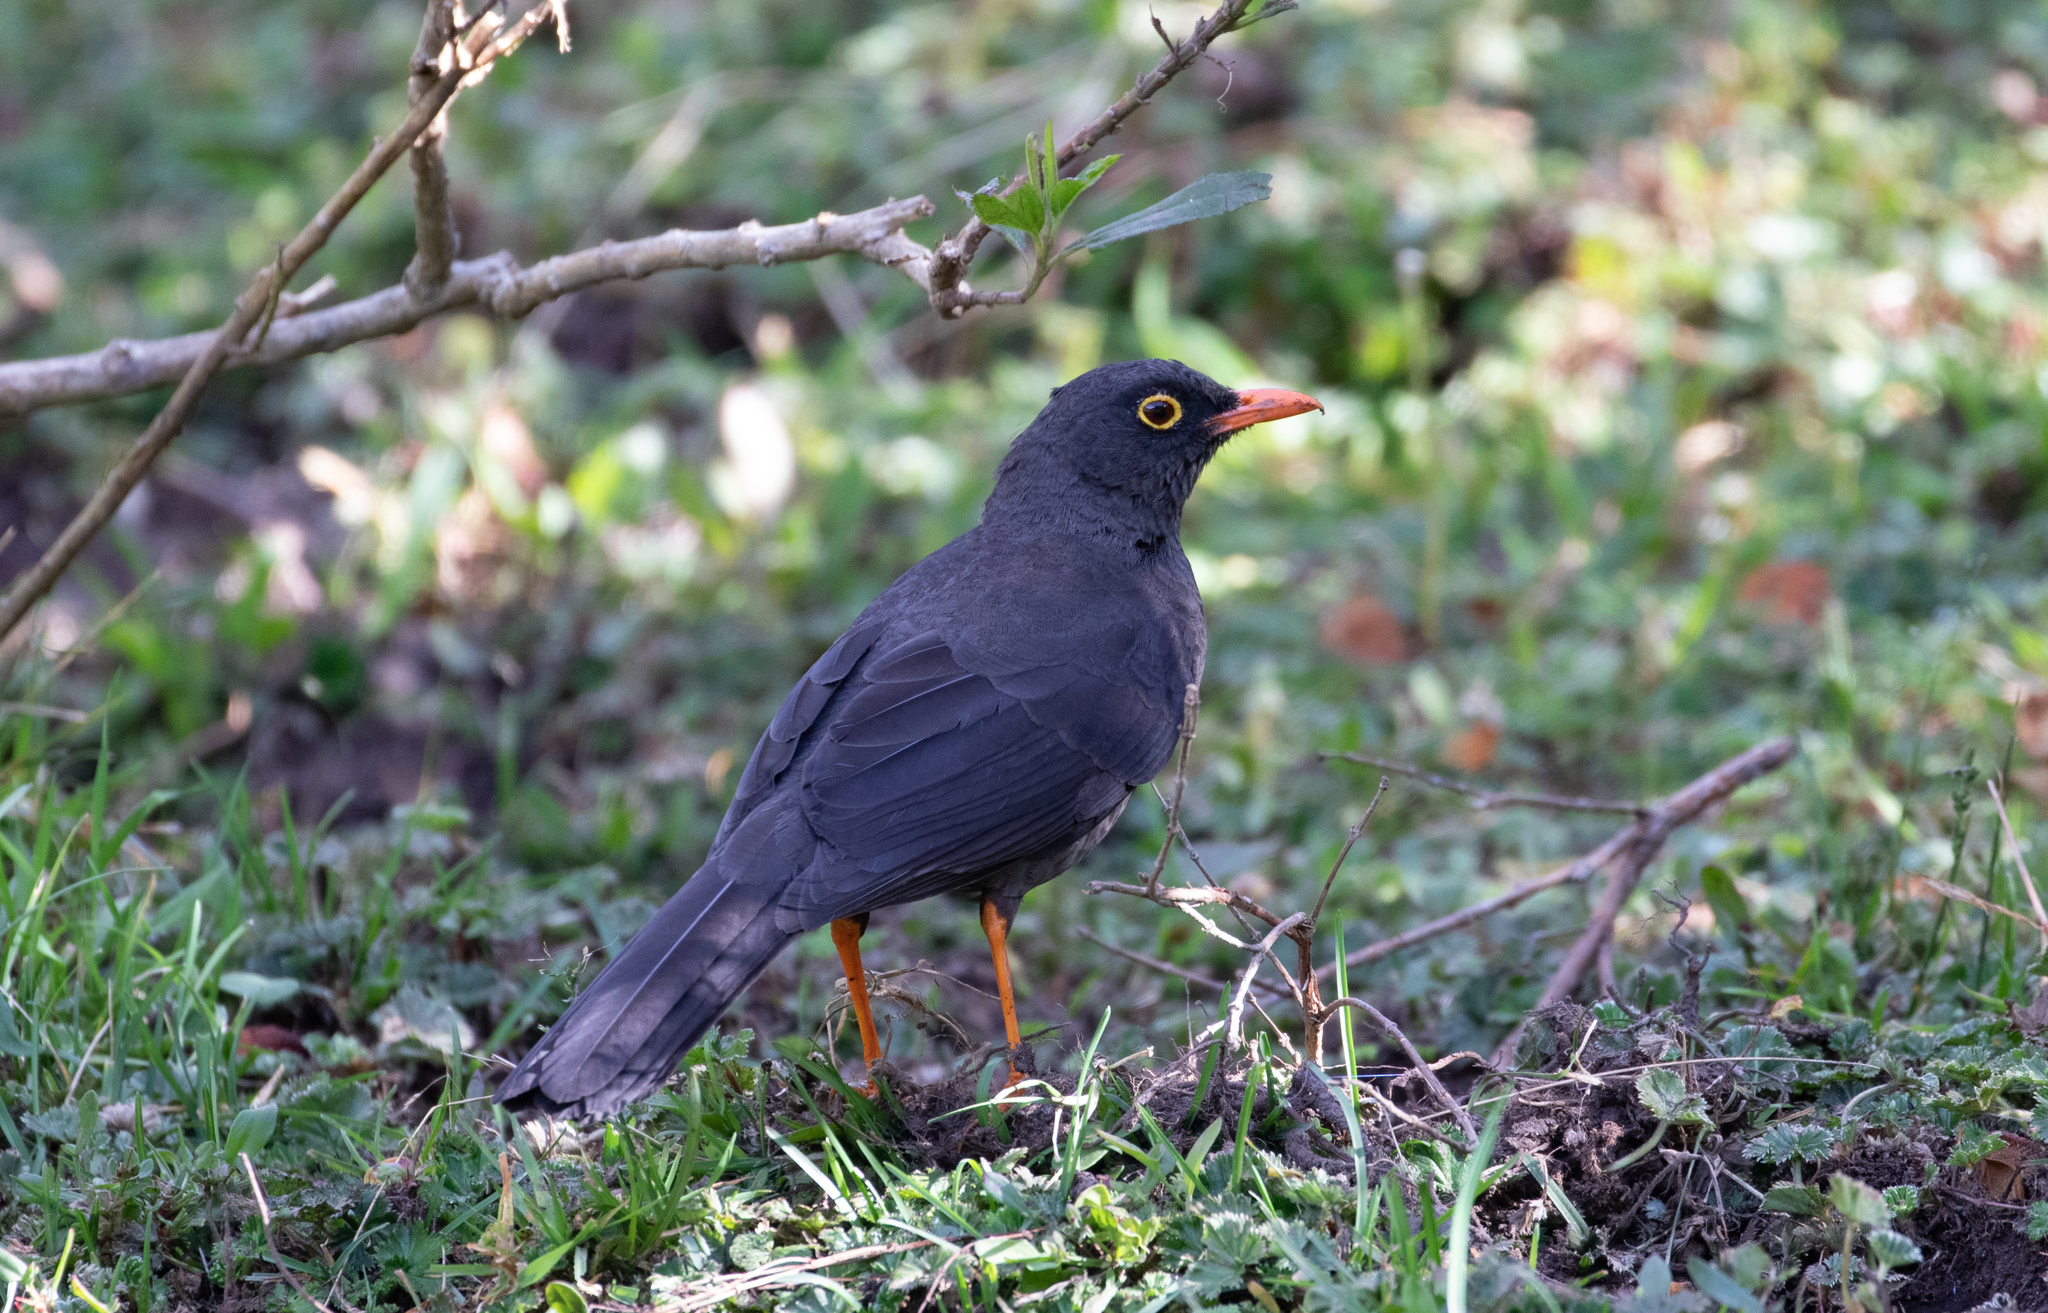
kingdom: Animalia
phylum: Chordata
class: Aves
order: Passeriformes
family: Turdidae
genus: Turdus
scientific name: Turdus fuscater
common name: Great thrush
